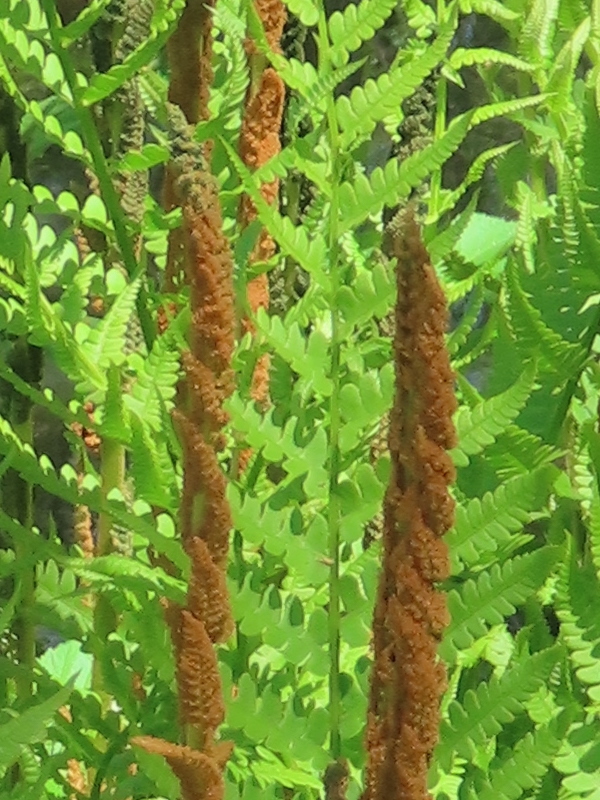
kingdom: Plantae
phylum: Tracheophyta
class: Polypodiopsida
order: Osmundales
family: Osmundaceae
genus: Osmundastrum
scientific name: Osmundastrum cinnamomeum
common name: Cinnamon fern
